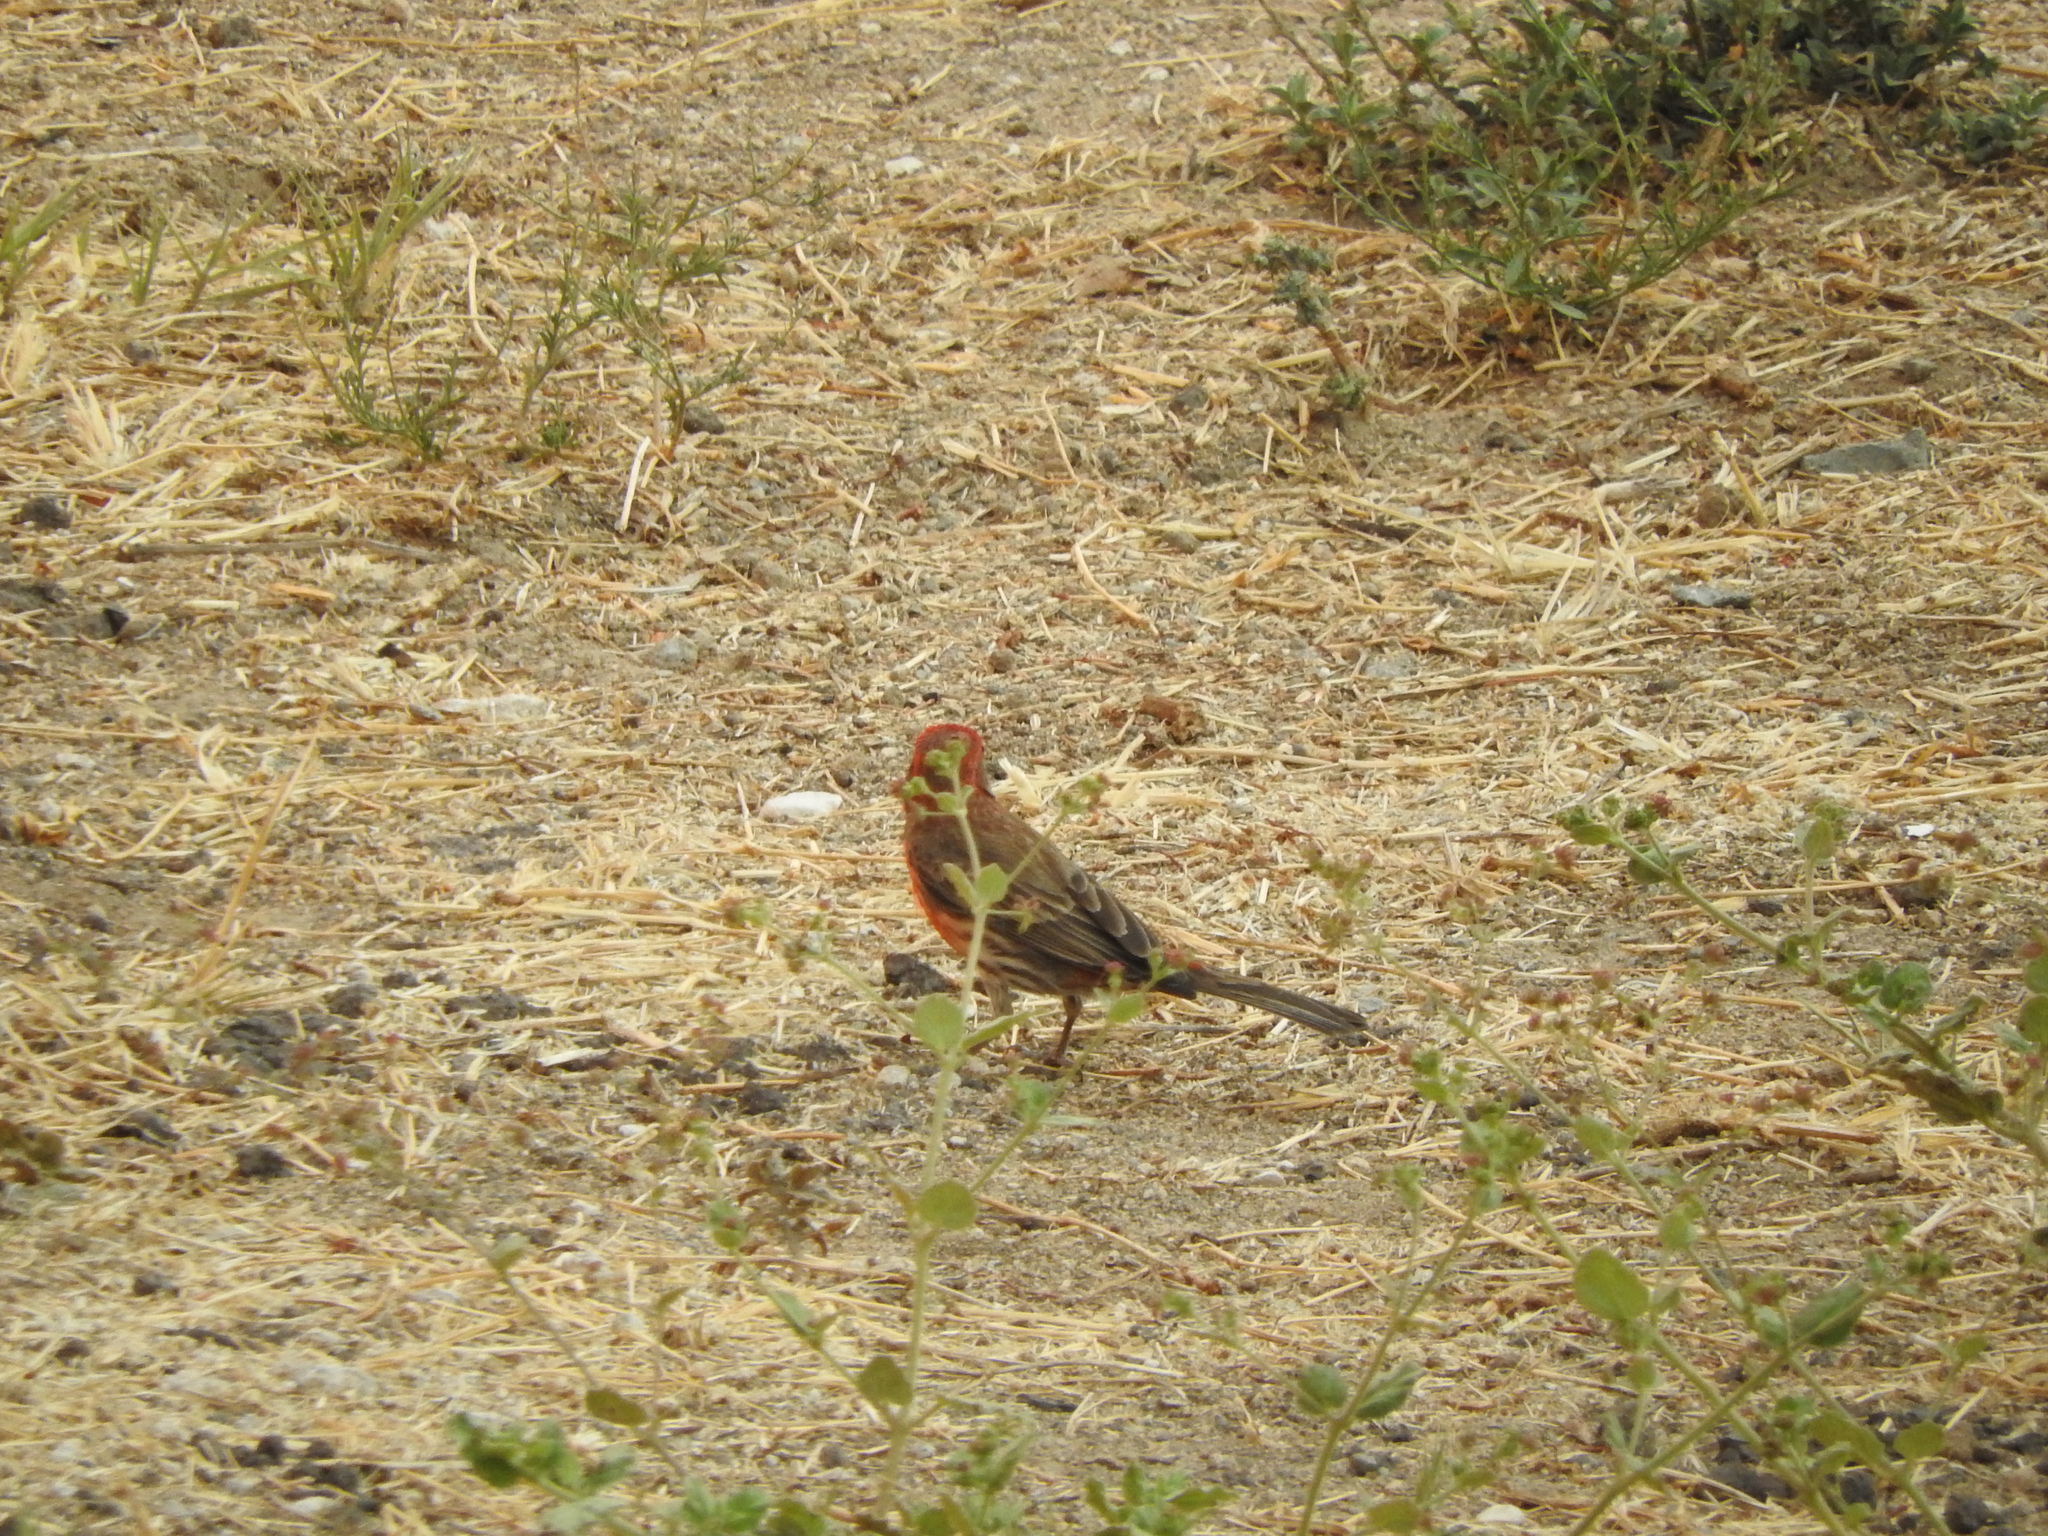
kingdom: Animalia
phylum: Chordata
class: Aves
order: Passeriformes
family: Fringillidae
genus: Haemorhous
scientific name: Haemorhous mexicanus
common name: House finch
